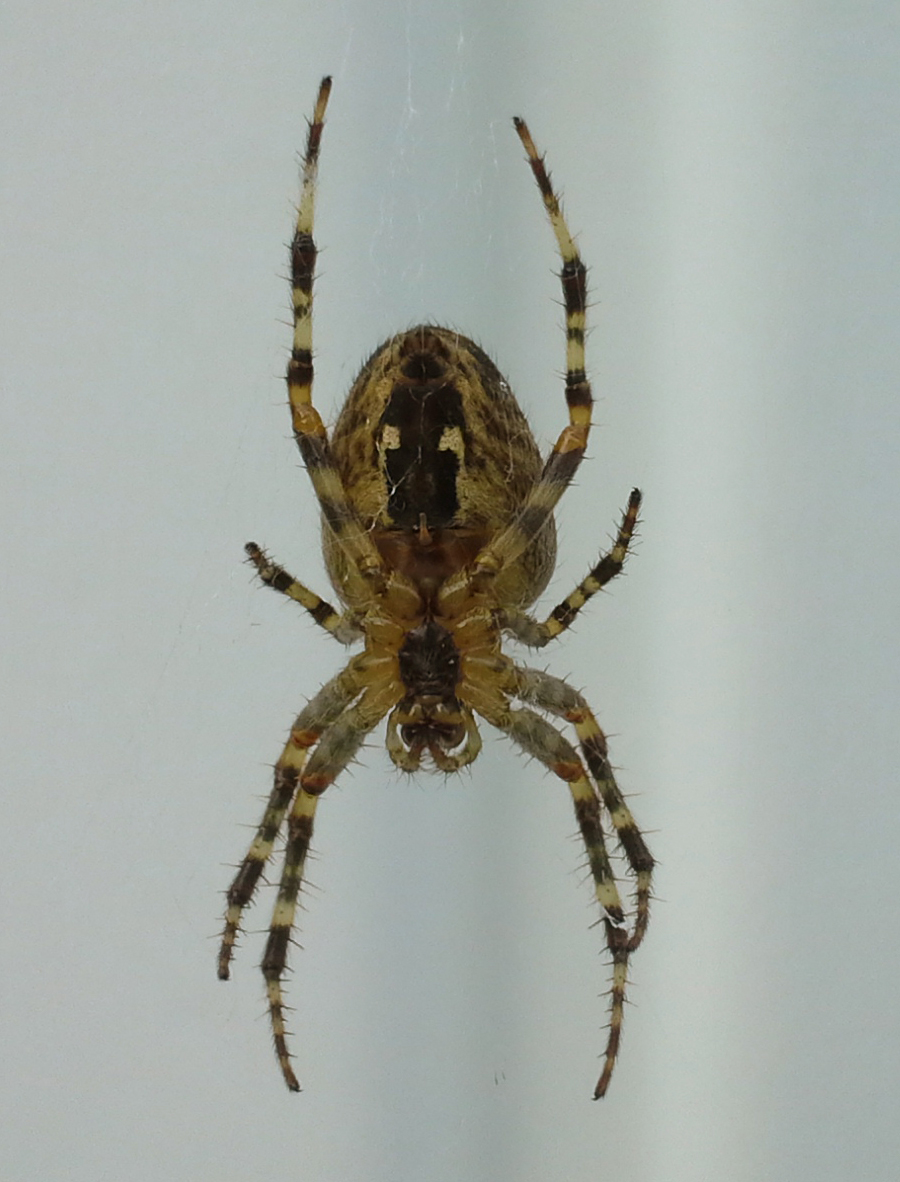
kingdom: Animalia
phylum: Arthropoda
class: Arachnida
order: Araneae
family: Araneidae
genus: Araneus
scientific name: Araneus diadematus
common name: Cross orbweaver
